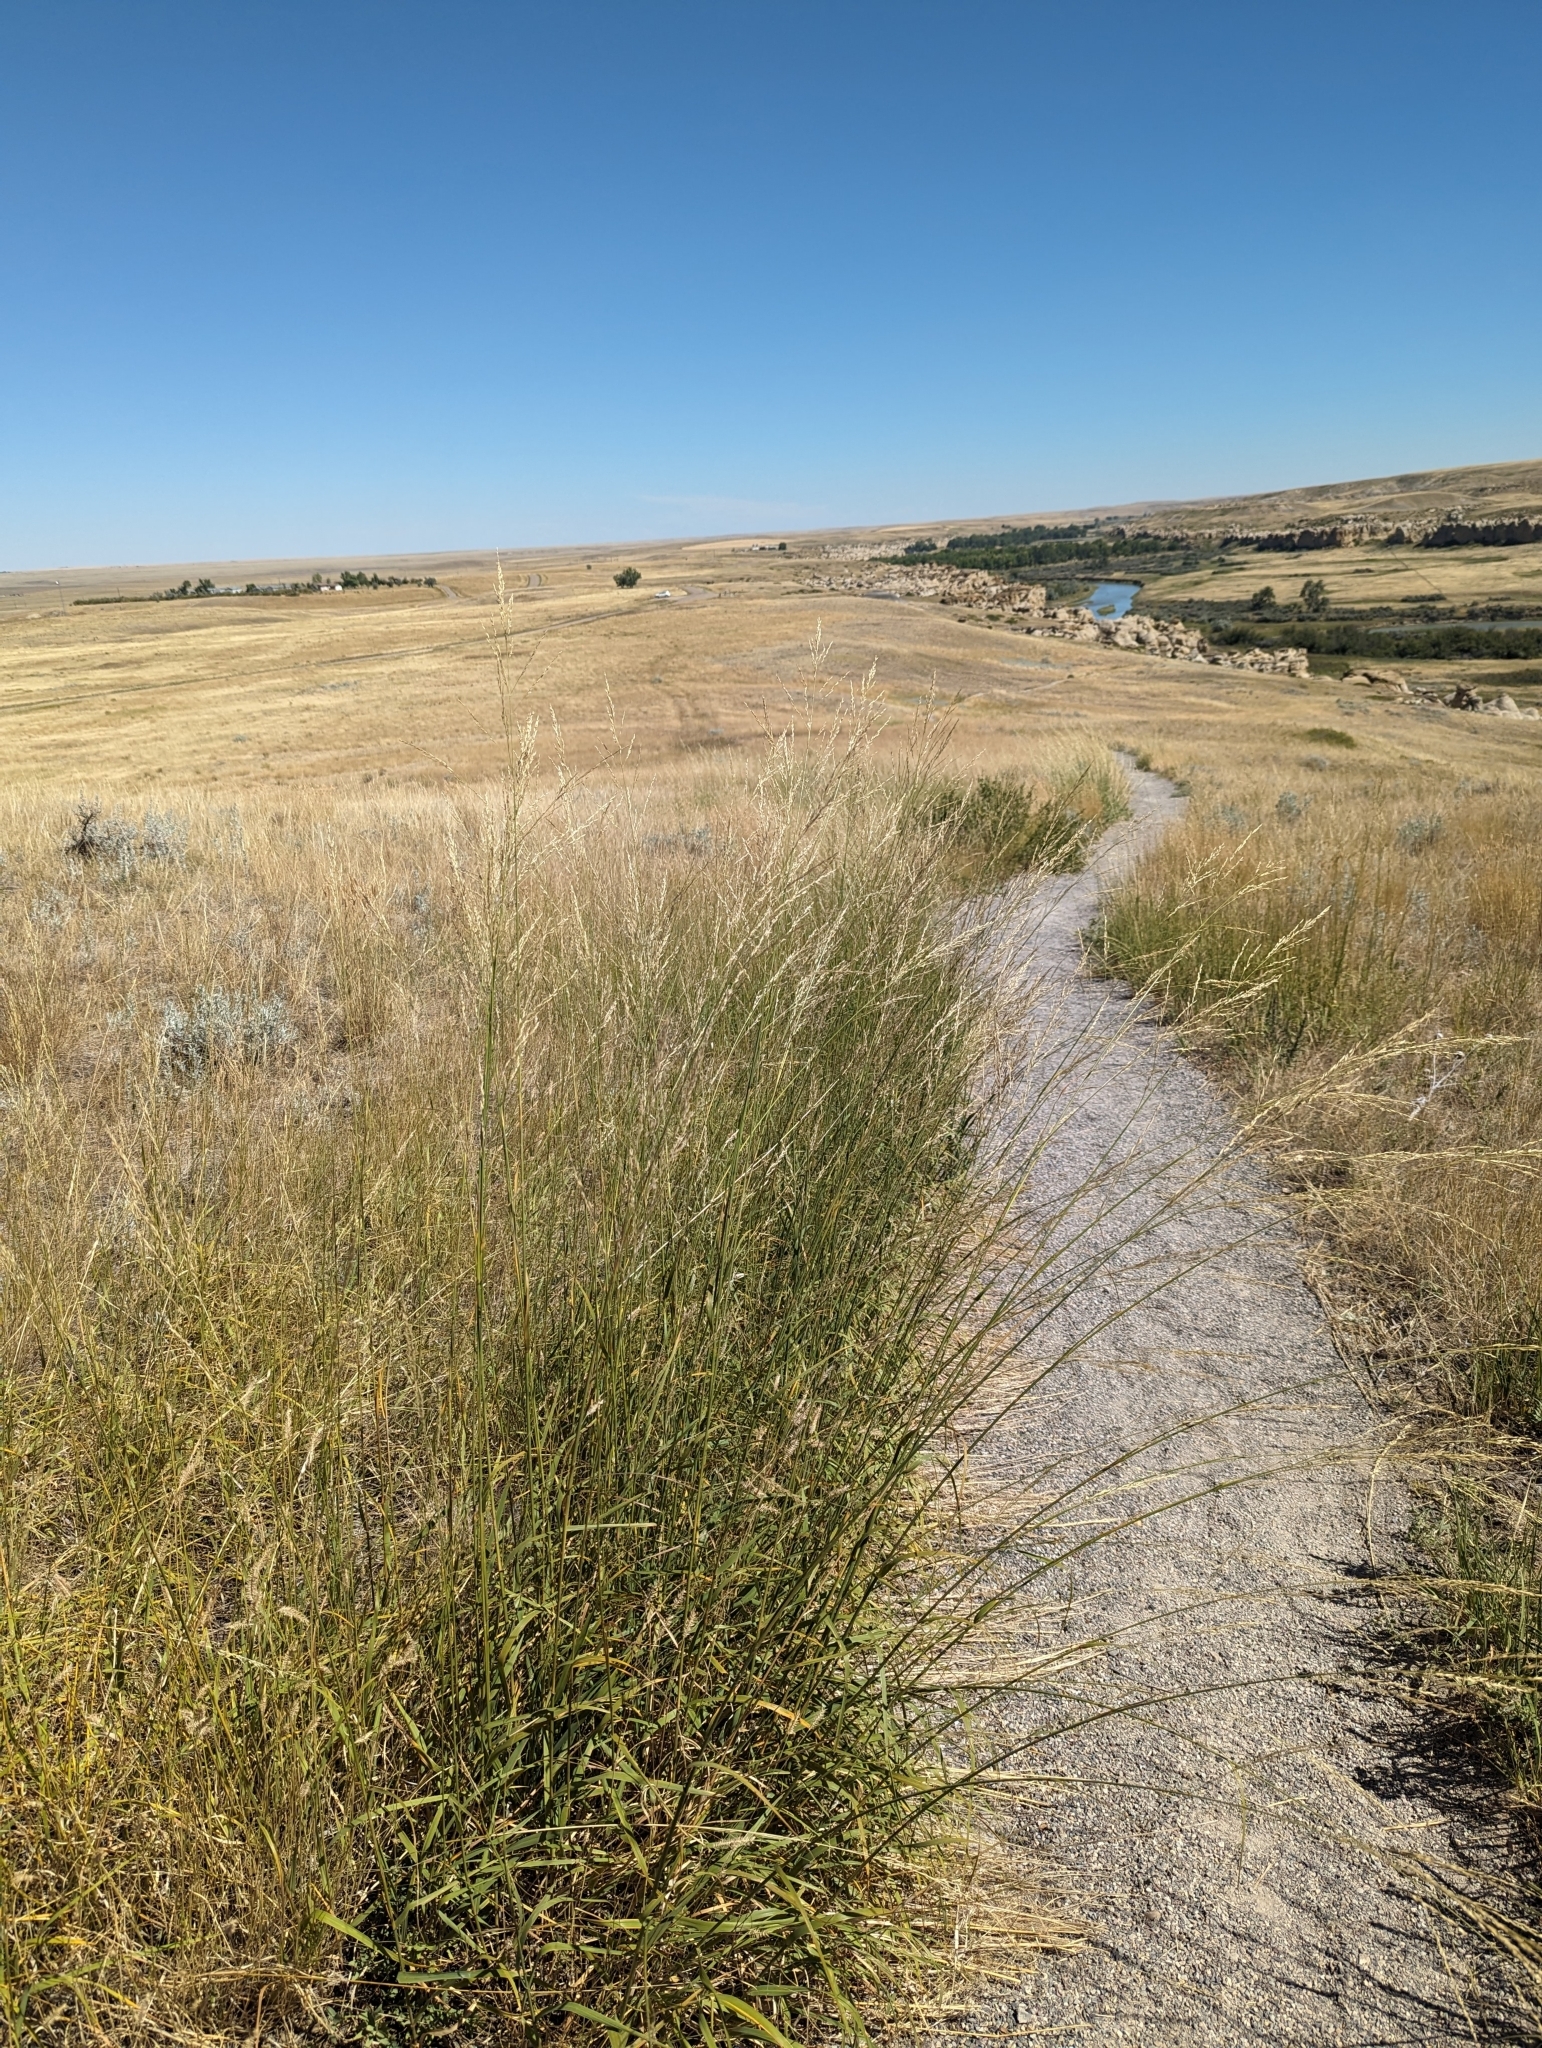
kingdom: Plantae
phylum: Tracheophyta
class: Liliopsida
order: Poales
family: Poaceae
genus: Sporobolus
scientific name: Sporobolus rigidus
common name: Prairie sandreed
